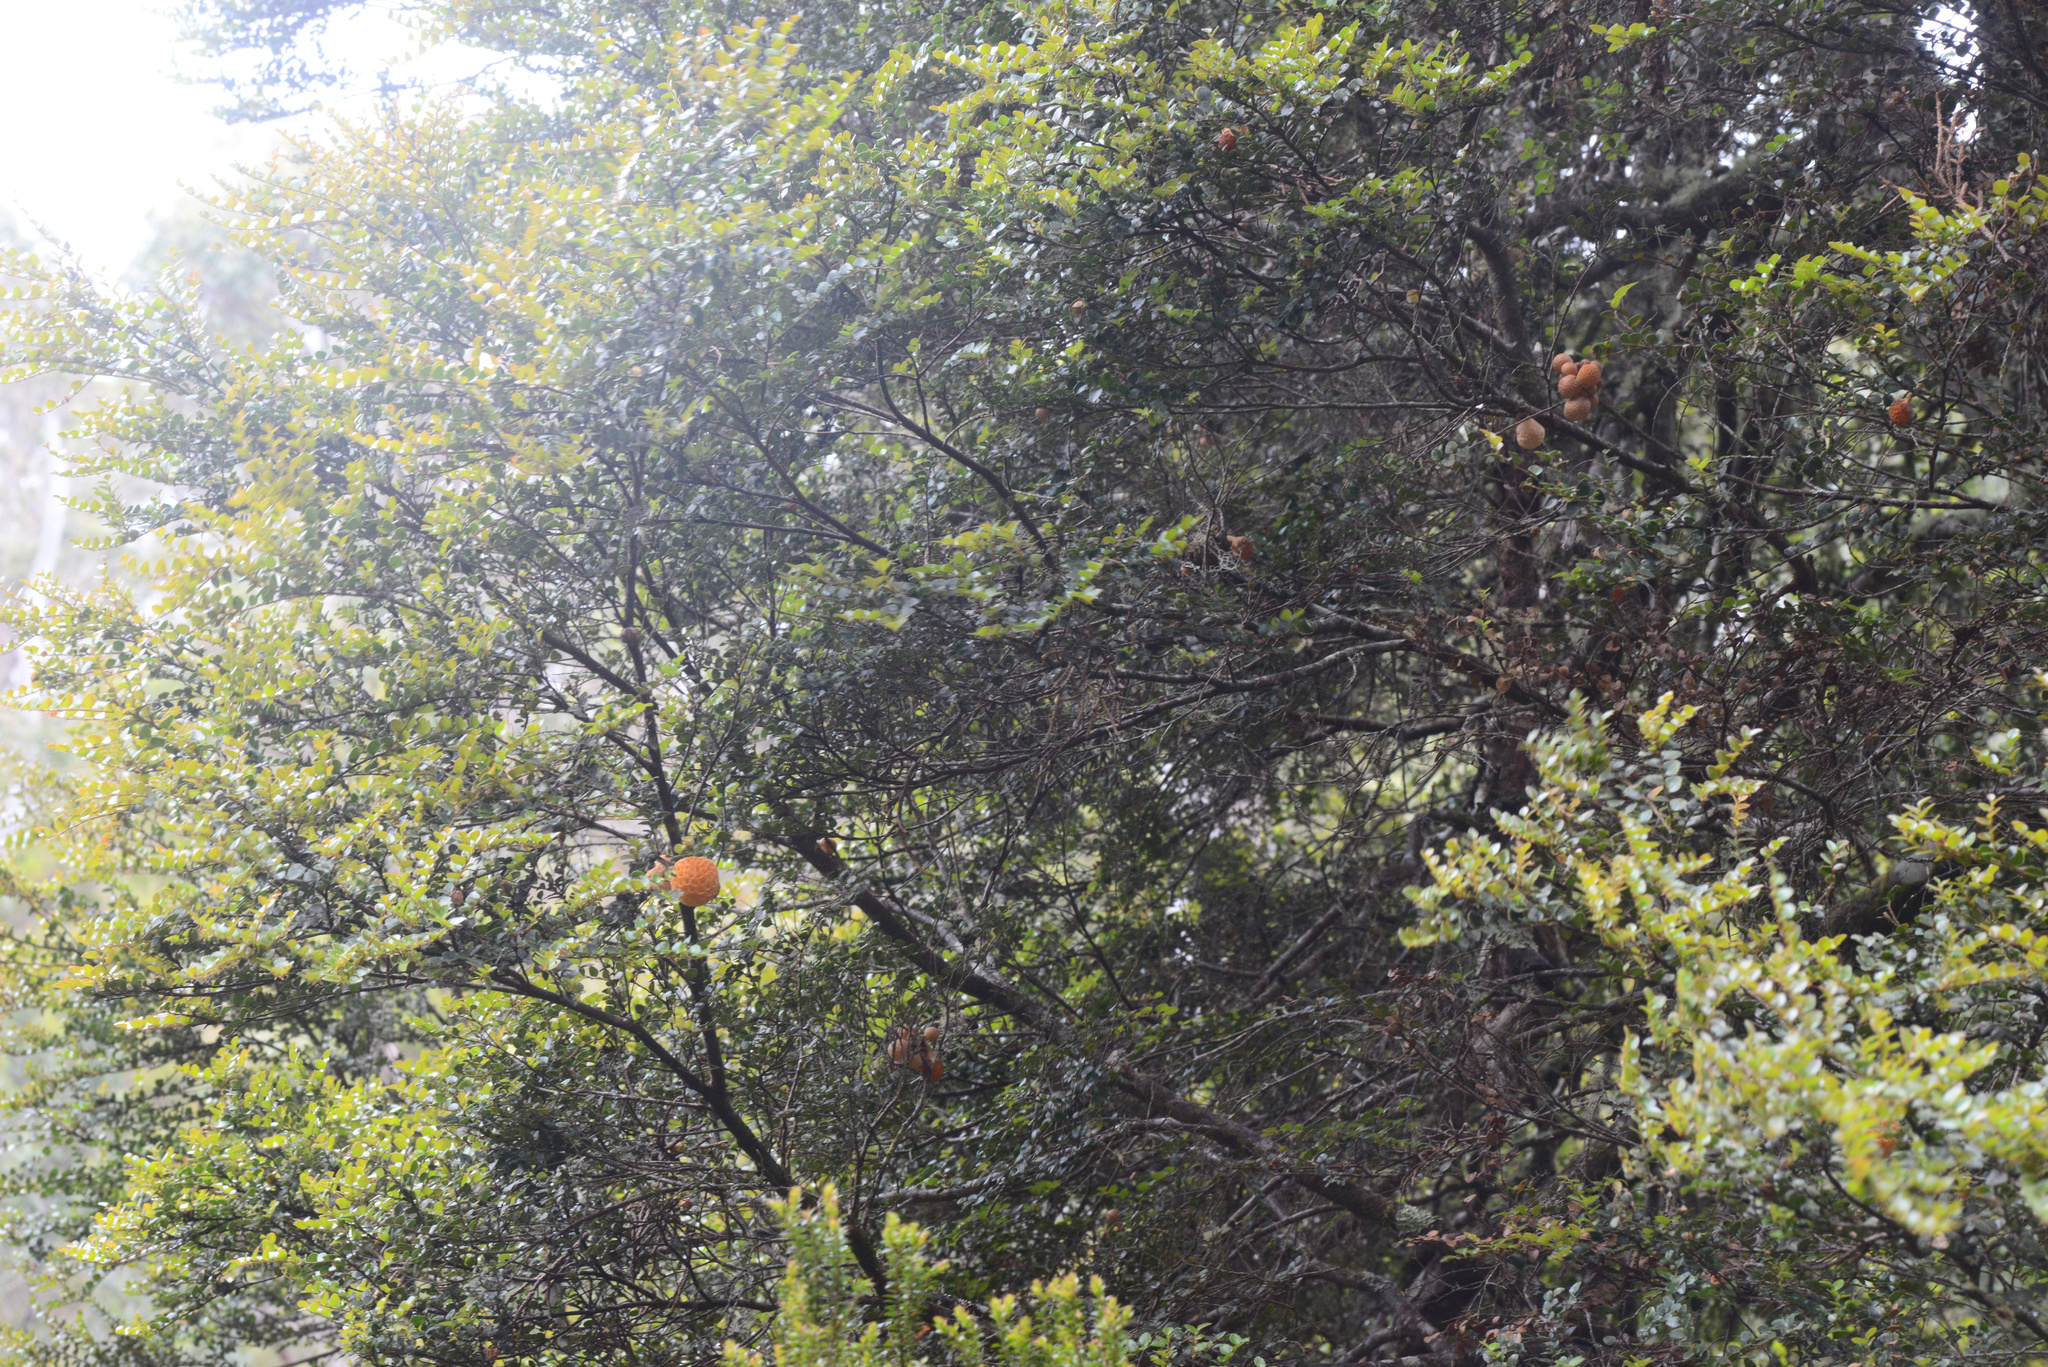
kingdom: Plantae
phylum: Tracheophyta
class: Magnoliopsida
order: Fagales
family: Nothofagaceae
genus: Nothofagus
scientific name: Nothofagus cunninghamii
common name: Myrtle beech
